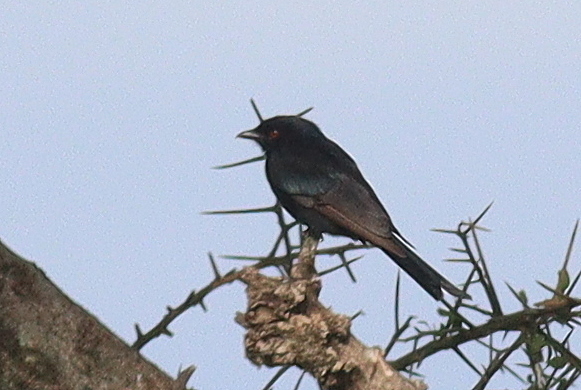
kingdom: Animalia
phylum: Chordata
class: Aves
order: Passeriformes
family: Dicruridae
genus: Dicrurus
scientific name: Dicrurus adsimilis
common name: Fork-tailed drongo
